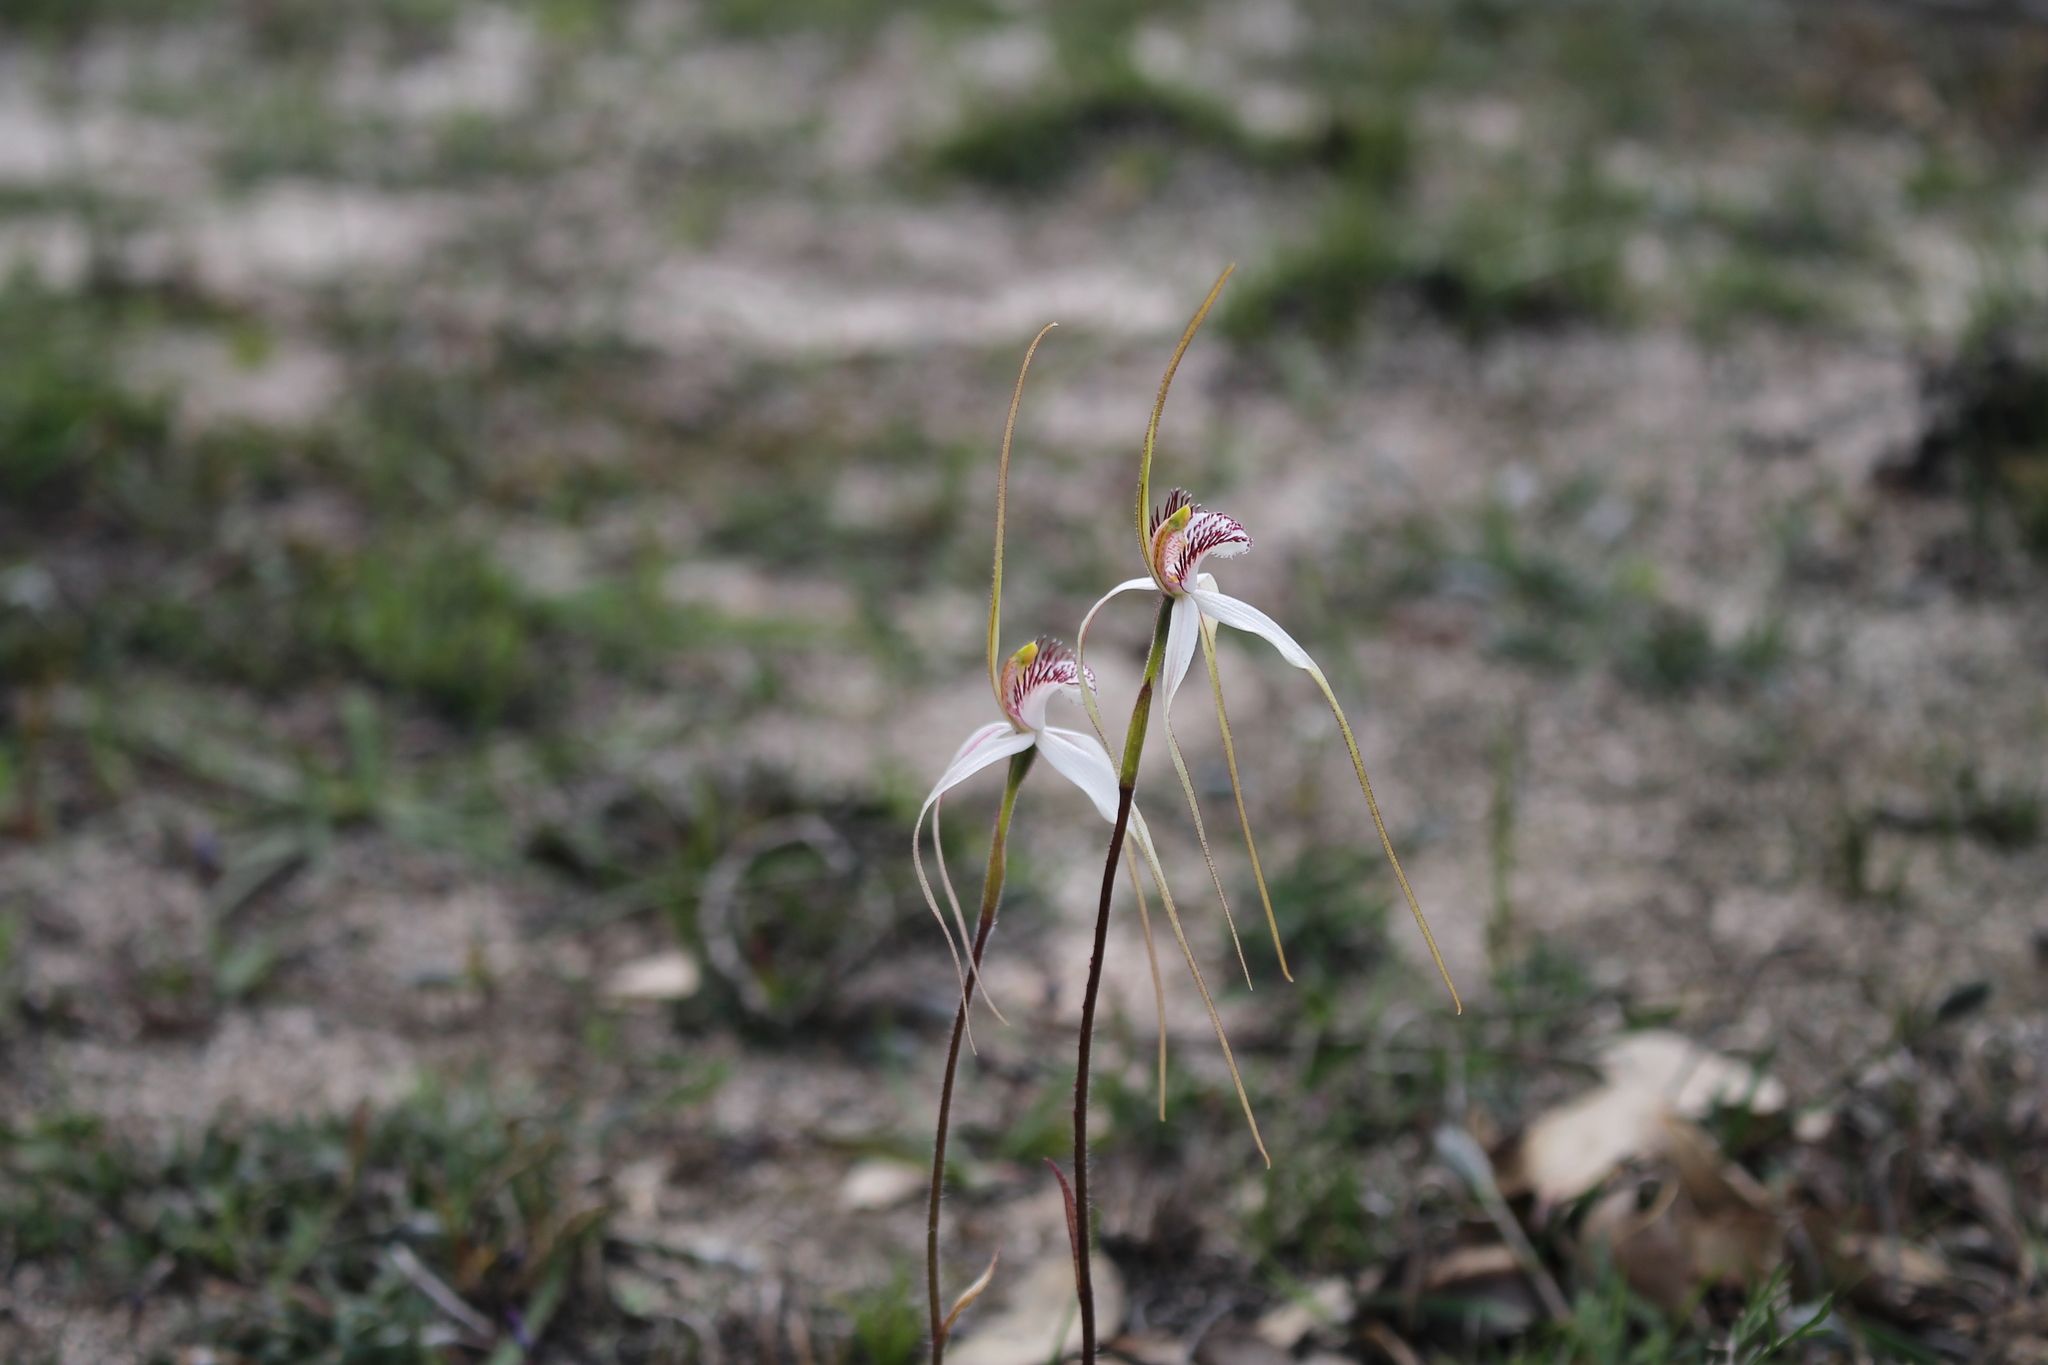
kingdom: Plantae
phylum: Tracheophyta
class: Liliopsida
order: Asparagales
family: Orchidaceae
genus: Caladenia
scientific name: Caladenia longicauda
